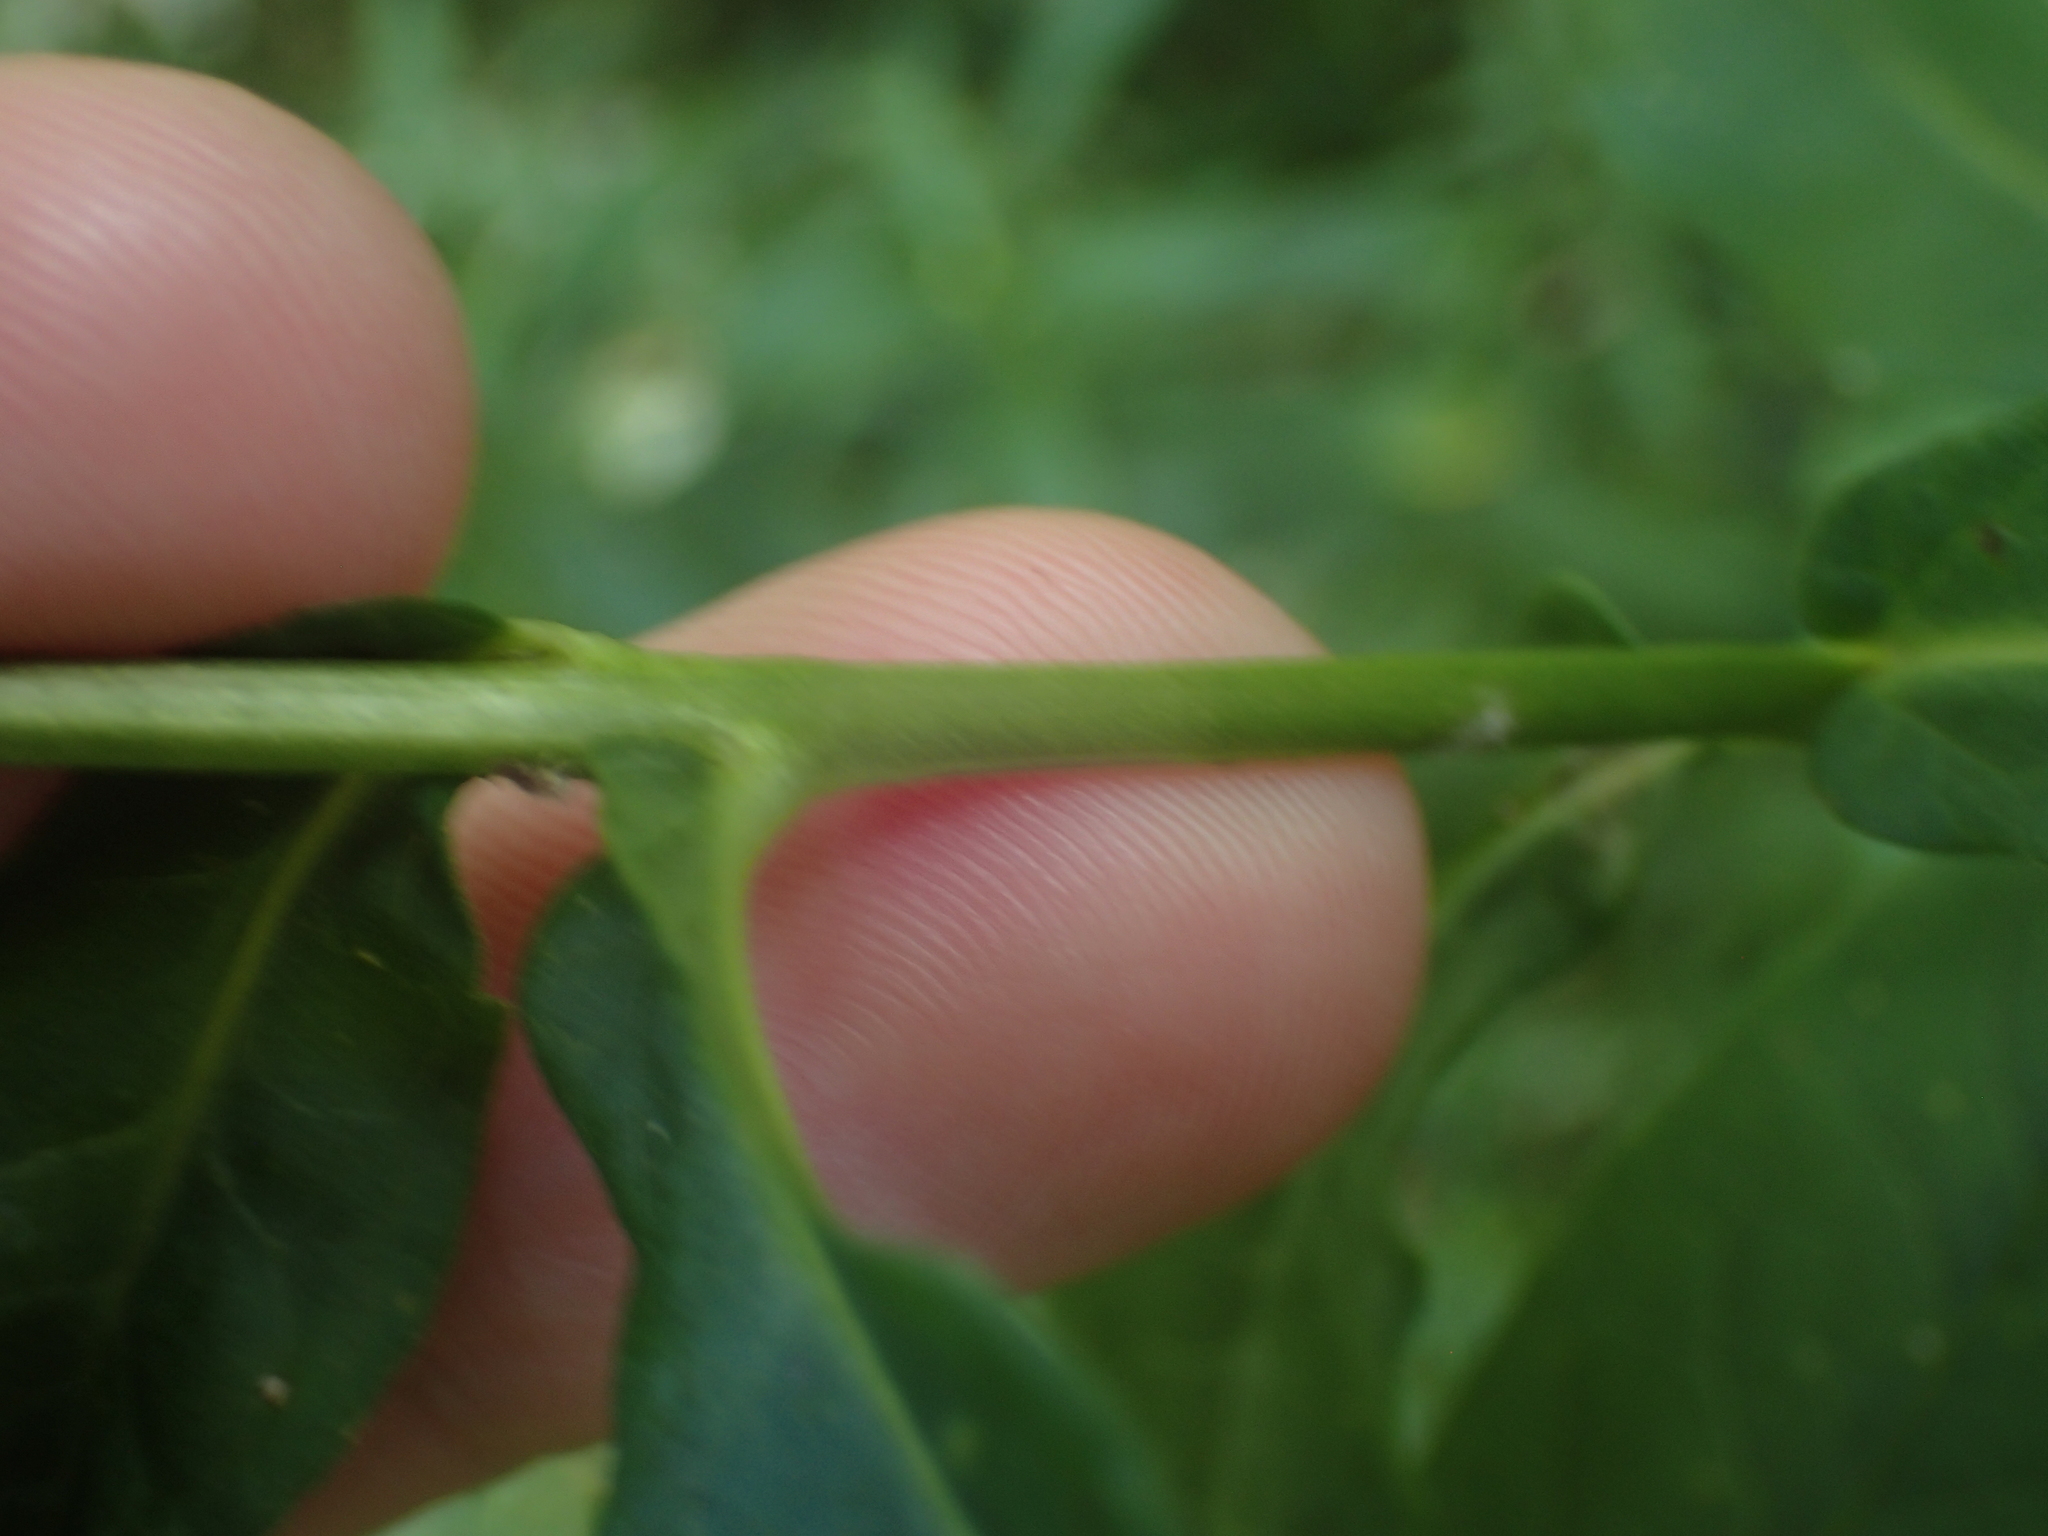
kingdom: Plantae
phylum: Tracheophyta
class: Magnoliopsida
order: Ericales
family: Polemoniaceae
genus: Phlox
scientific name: Phlox paniculata
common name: Fall phlox
